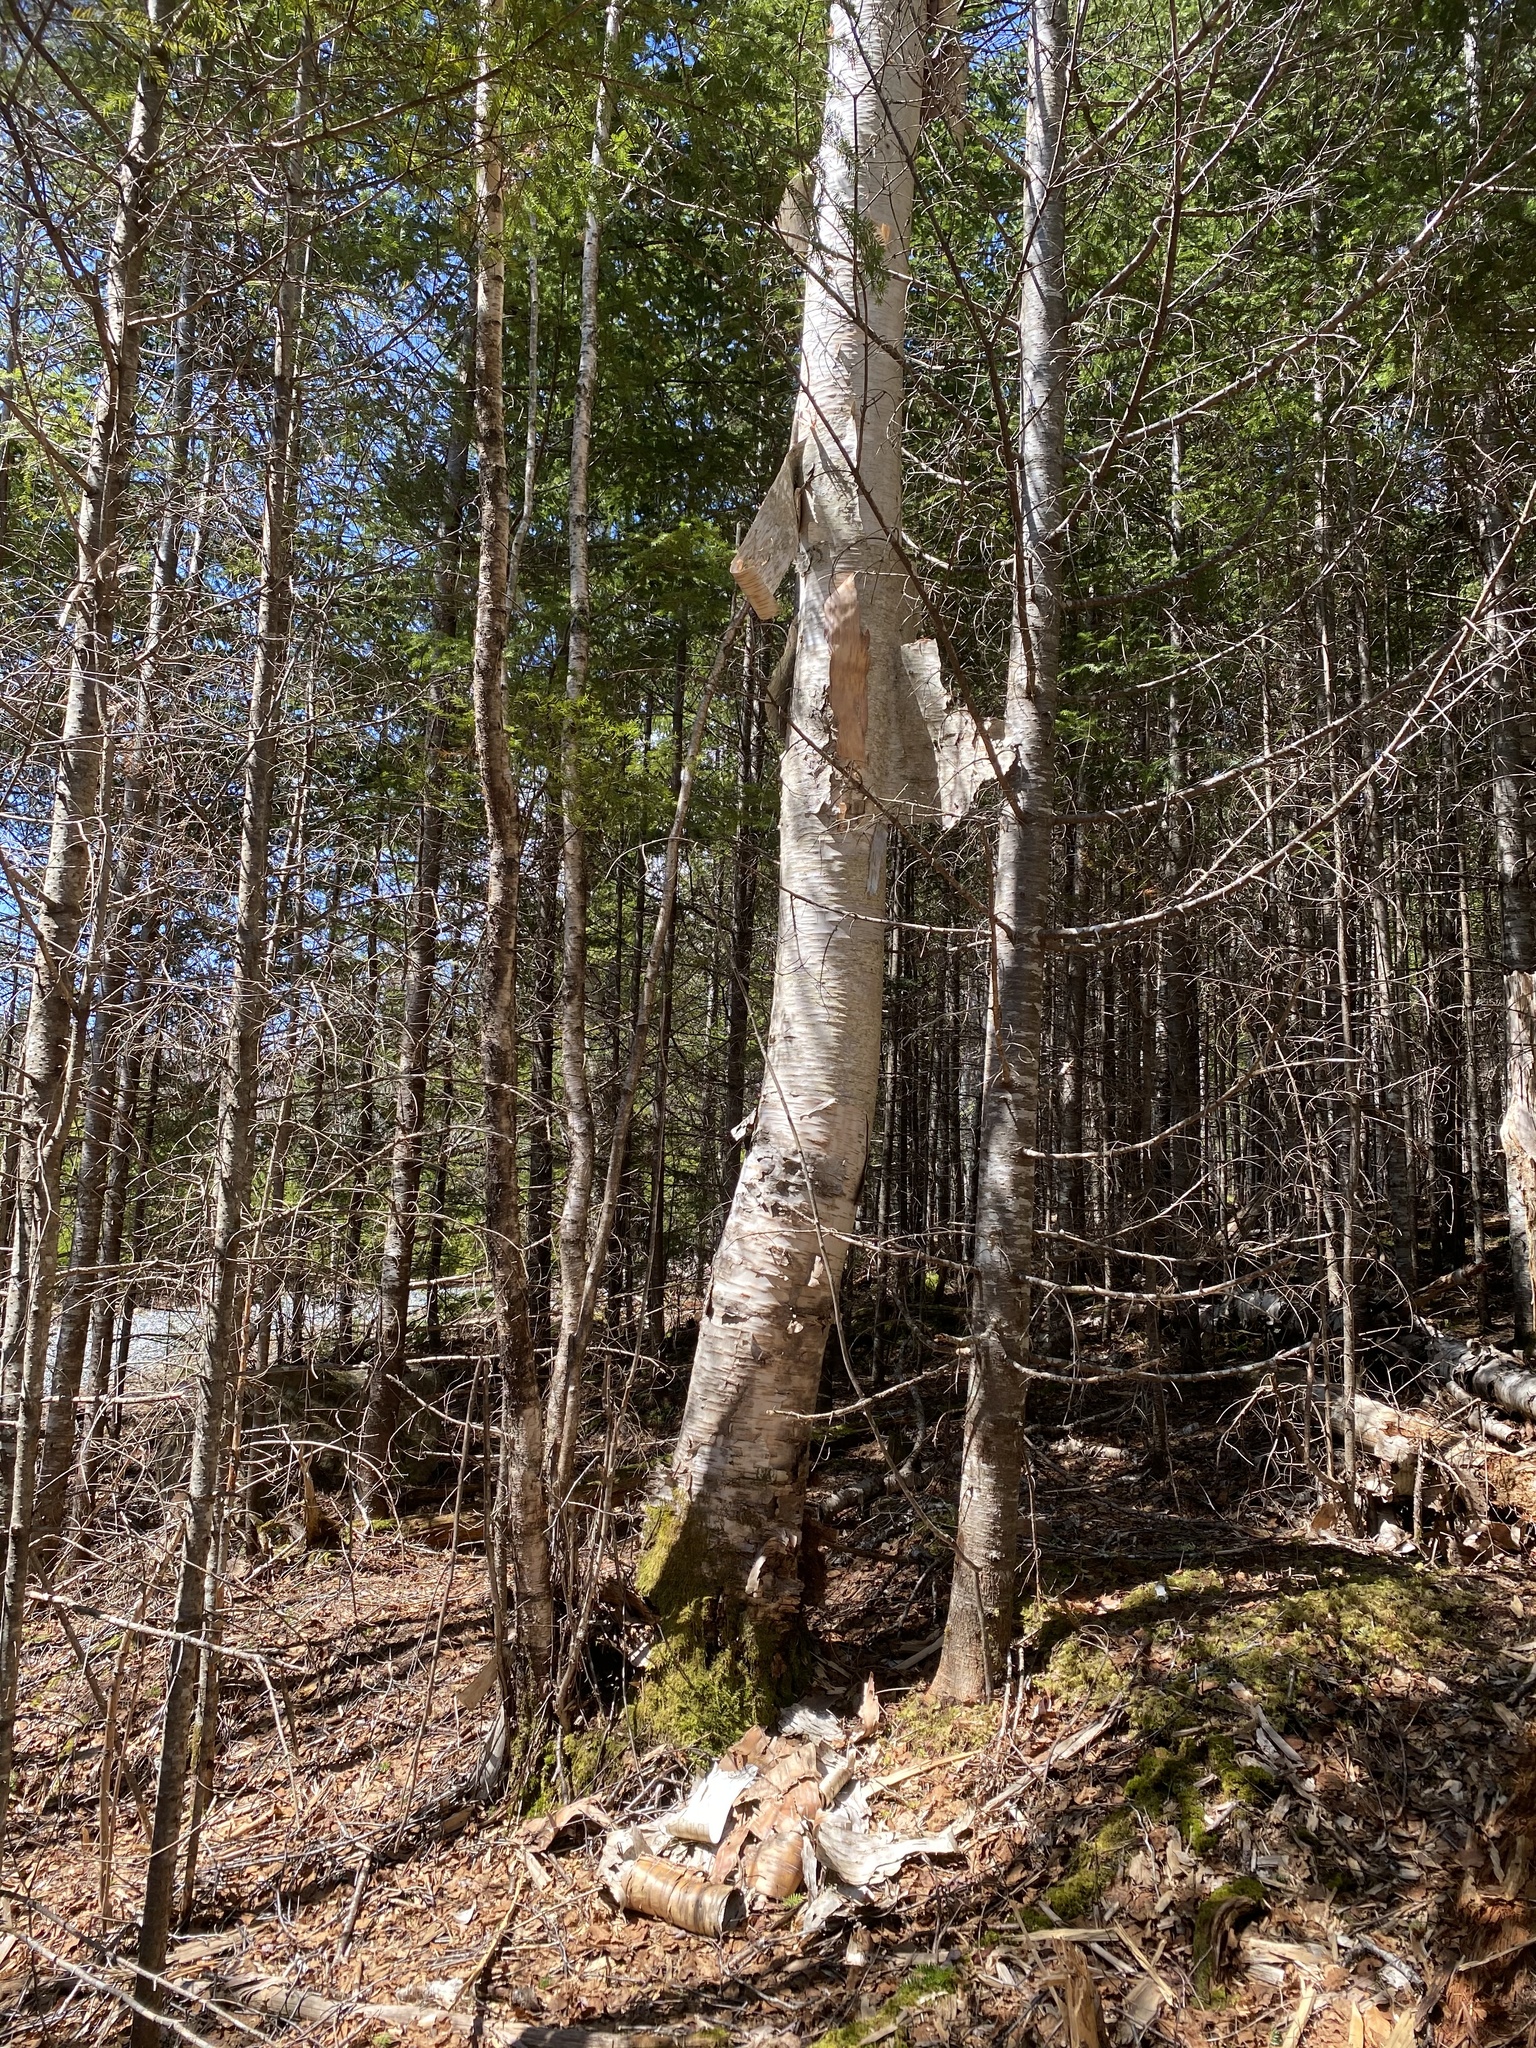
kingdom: Plantae
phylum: Tracheophyta
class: Magnoliopsida
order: Fagales
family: Betulaceae
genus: Betula
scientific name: Betula papyrifera
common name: Paper birch
